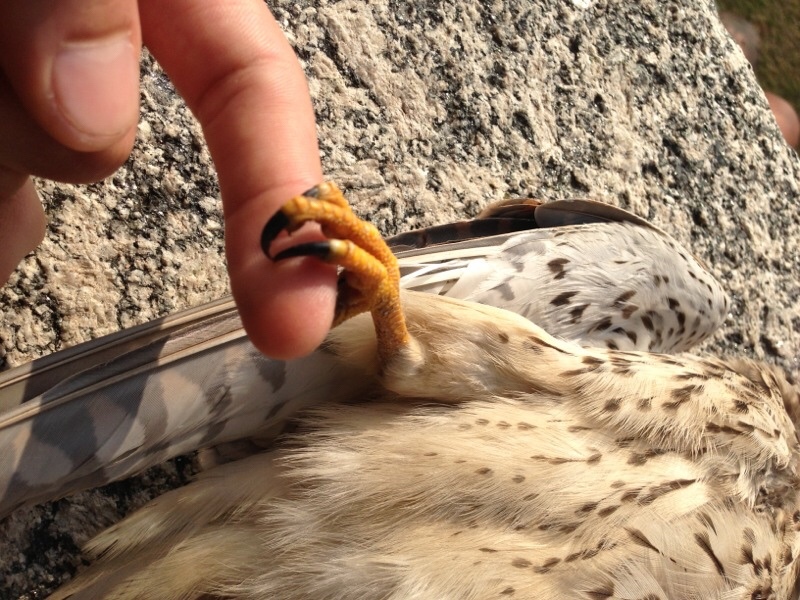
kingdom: Animalia
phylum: Chordata
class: Aves
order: Falconiformes
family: Falconidae
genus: Falco
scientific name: Falco tinnunculus
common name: Common kestrel
